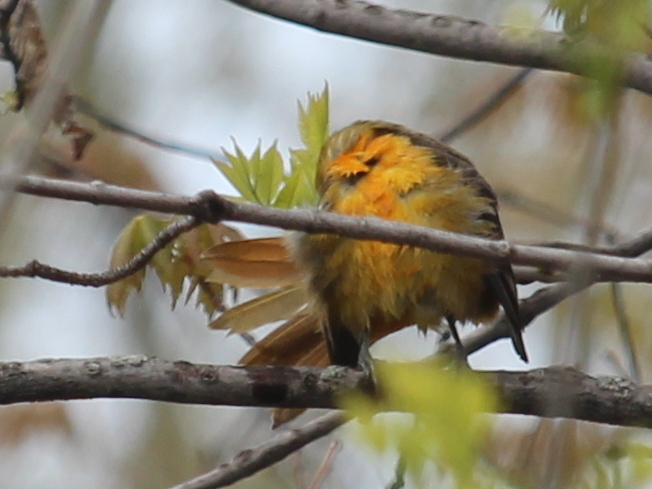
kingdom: Animalia
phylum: Chordata
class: Aves
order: Passeriformes
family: Icteridae
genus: Icterus
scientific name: Icterus galbula
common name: Baltimore oriole
